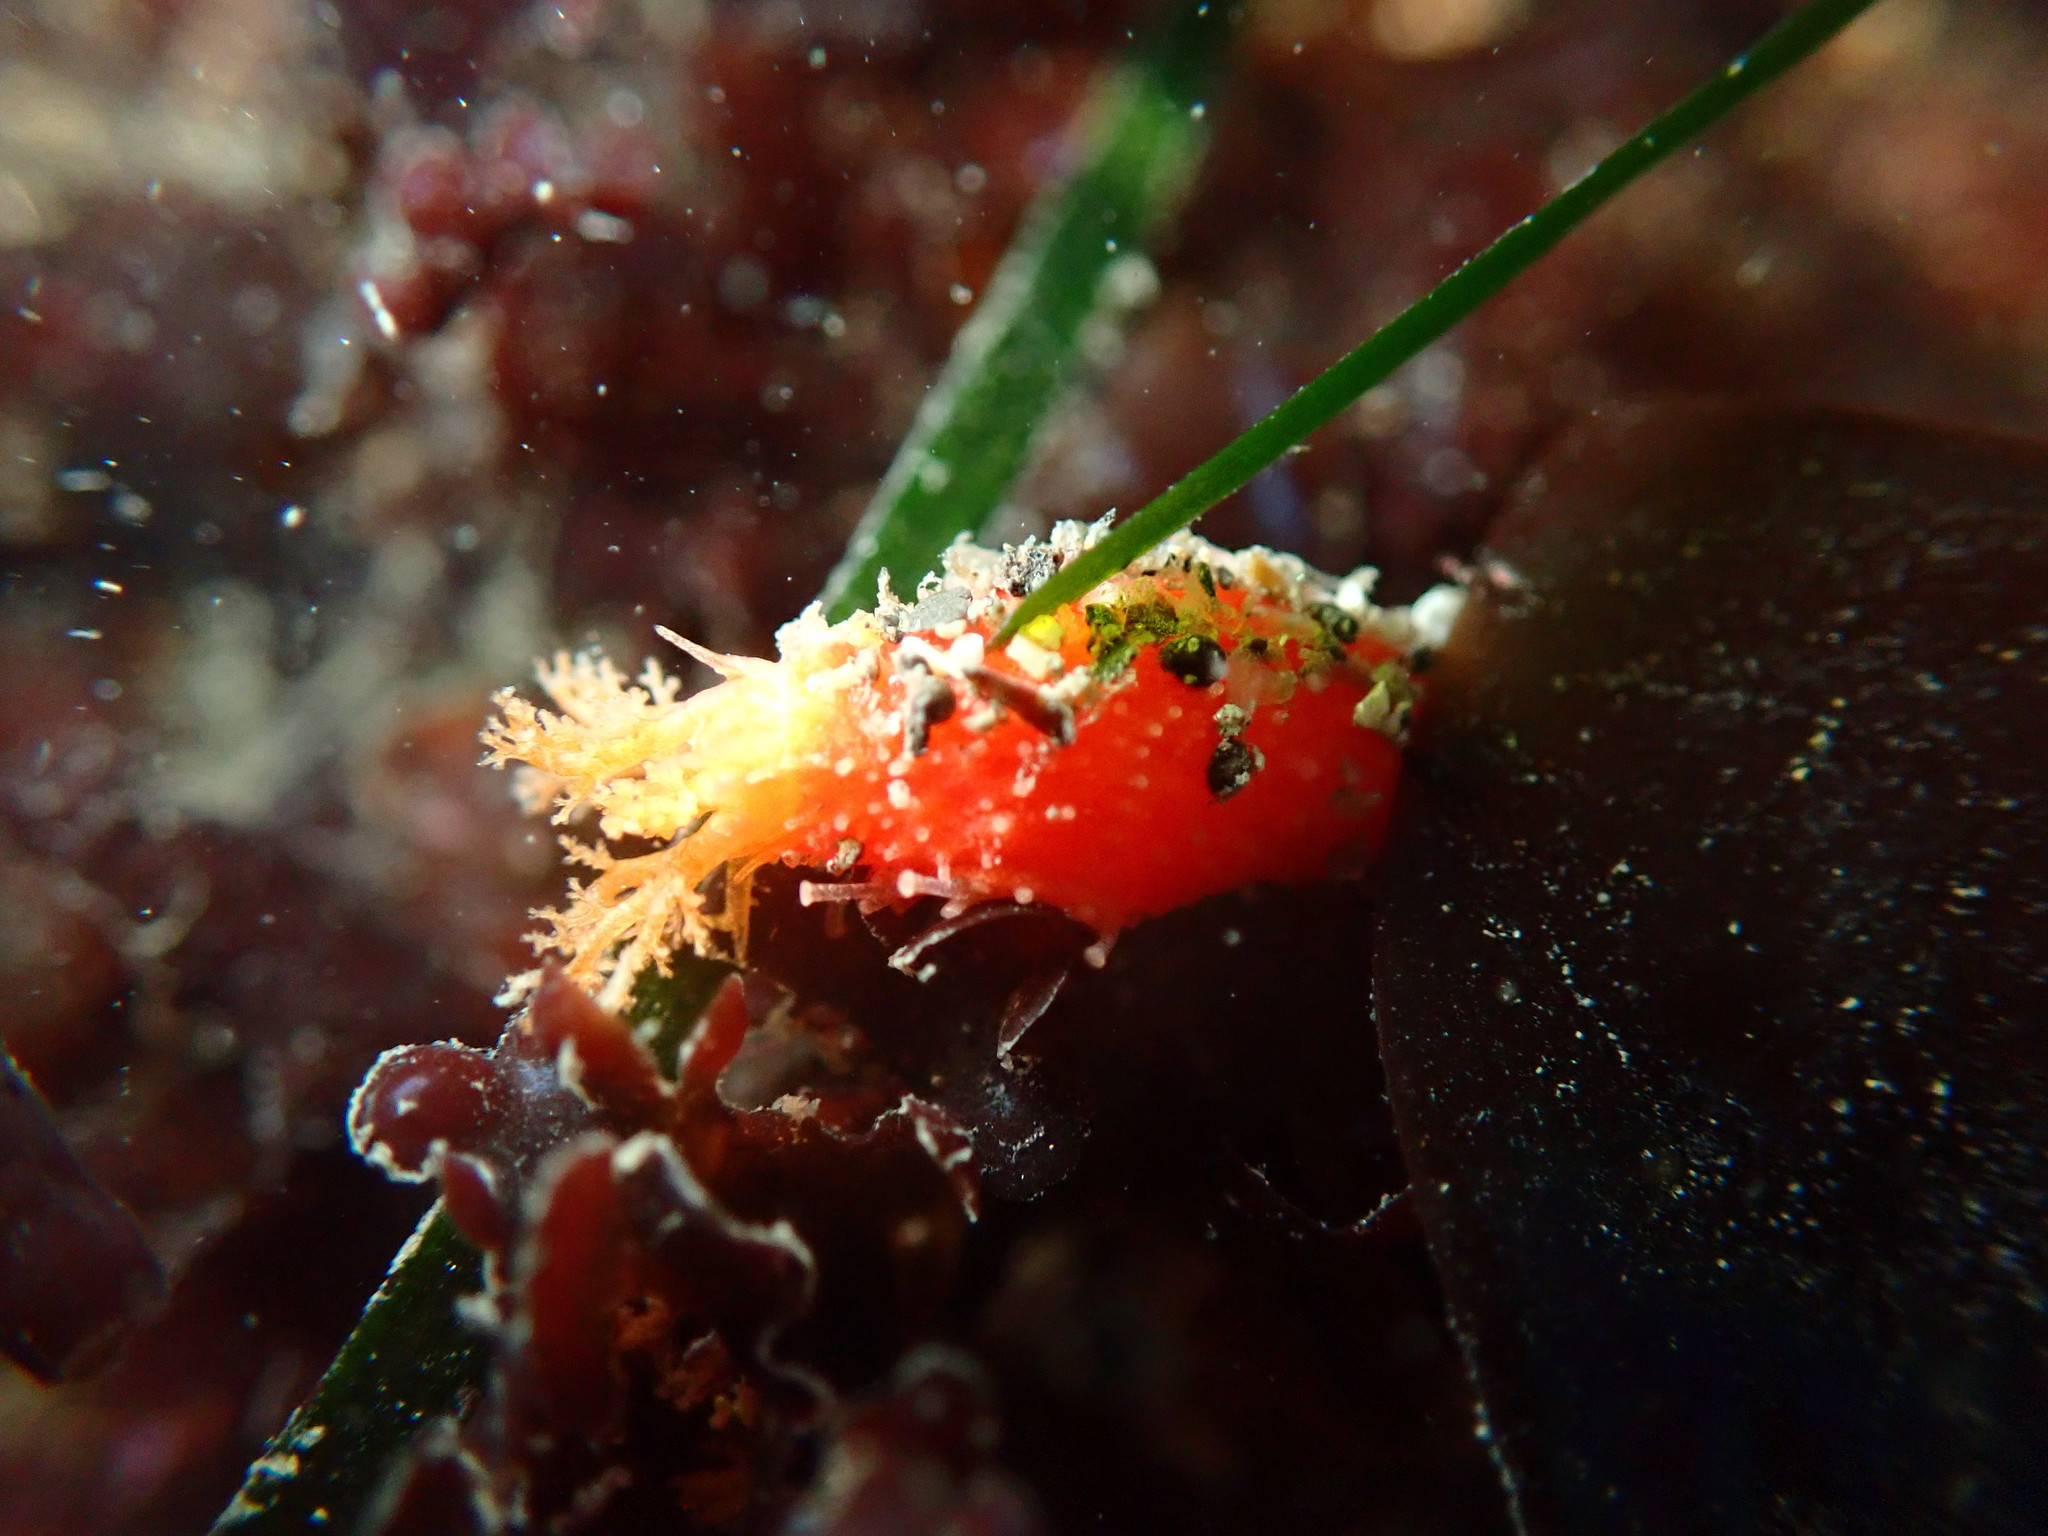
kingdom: Animalia
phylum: Echinodermata
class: Holothuroidea
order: Dendrochirotida
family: Psolidae
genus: Lissothuria
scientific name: Lissothuria nutriens
